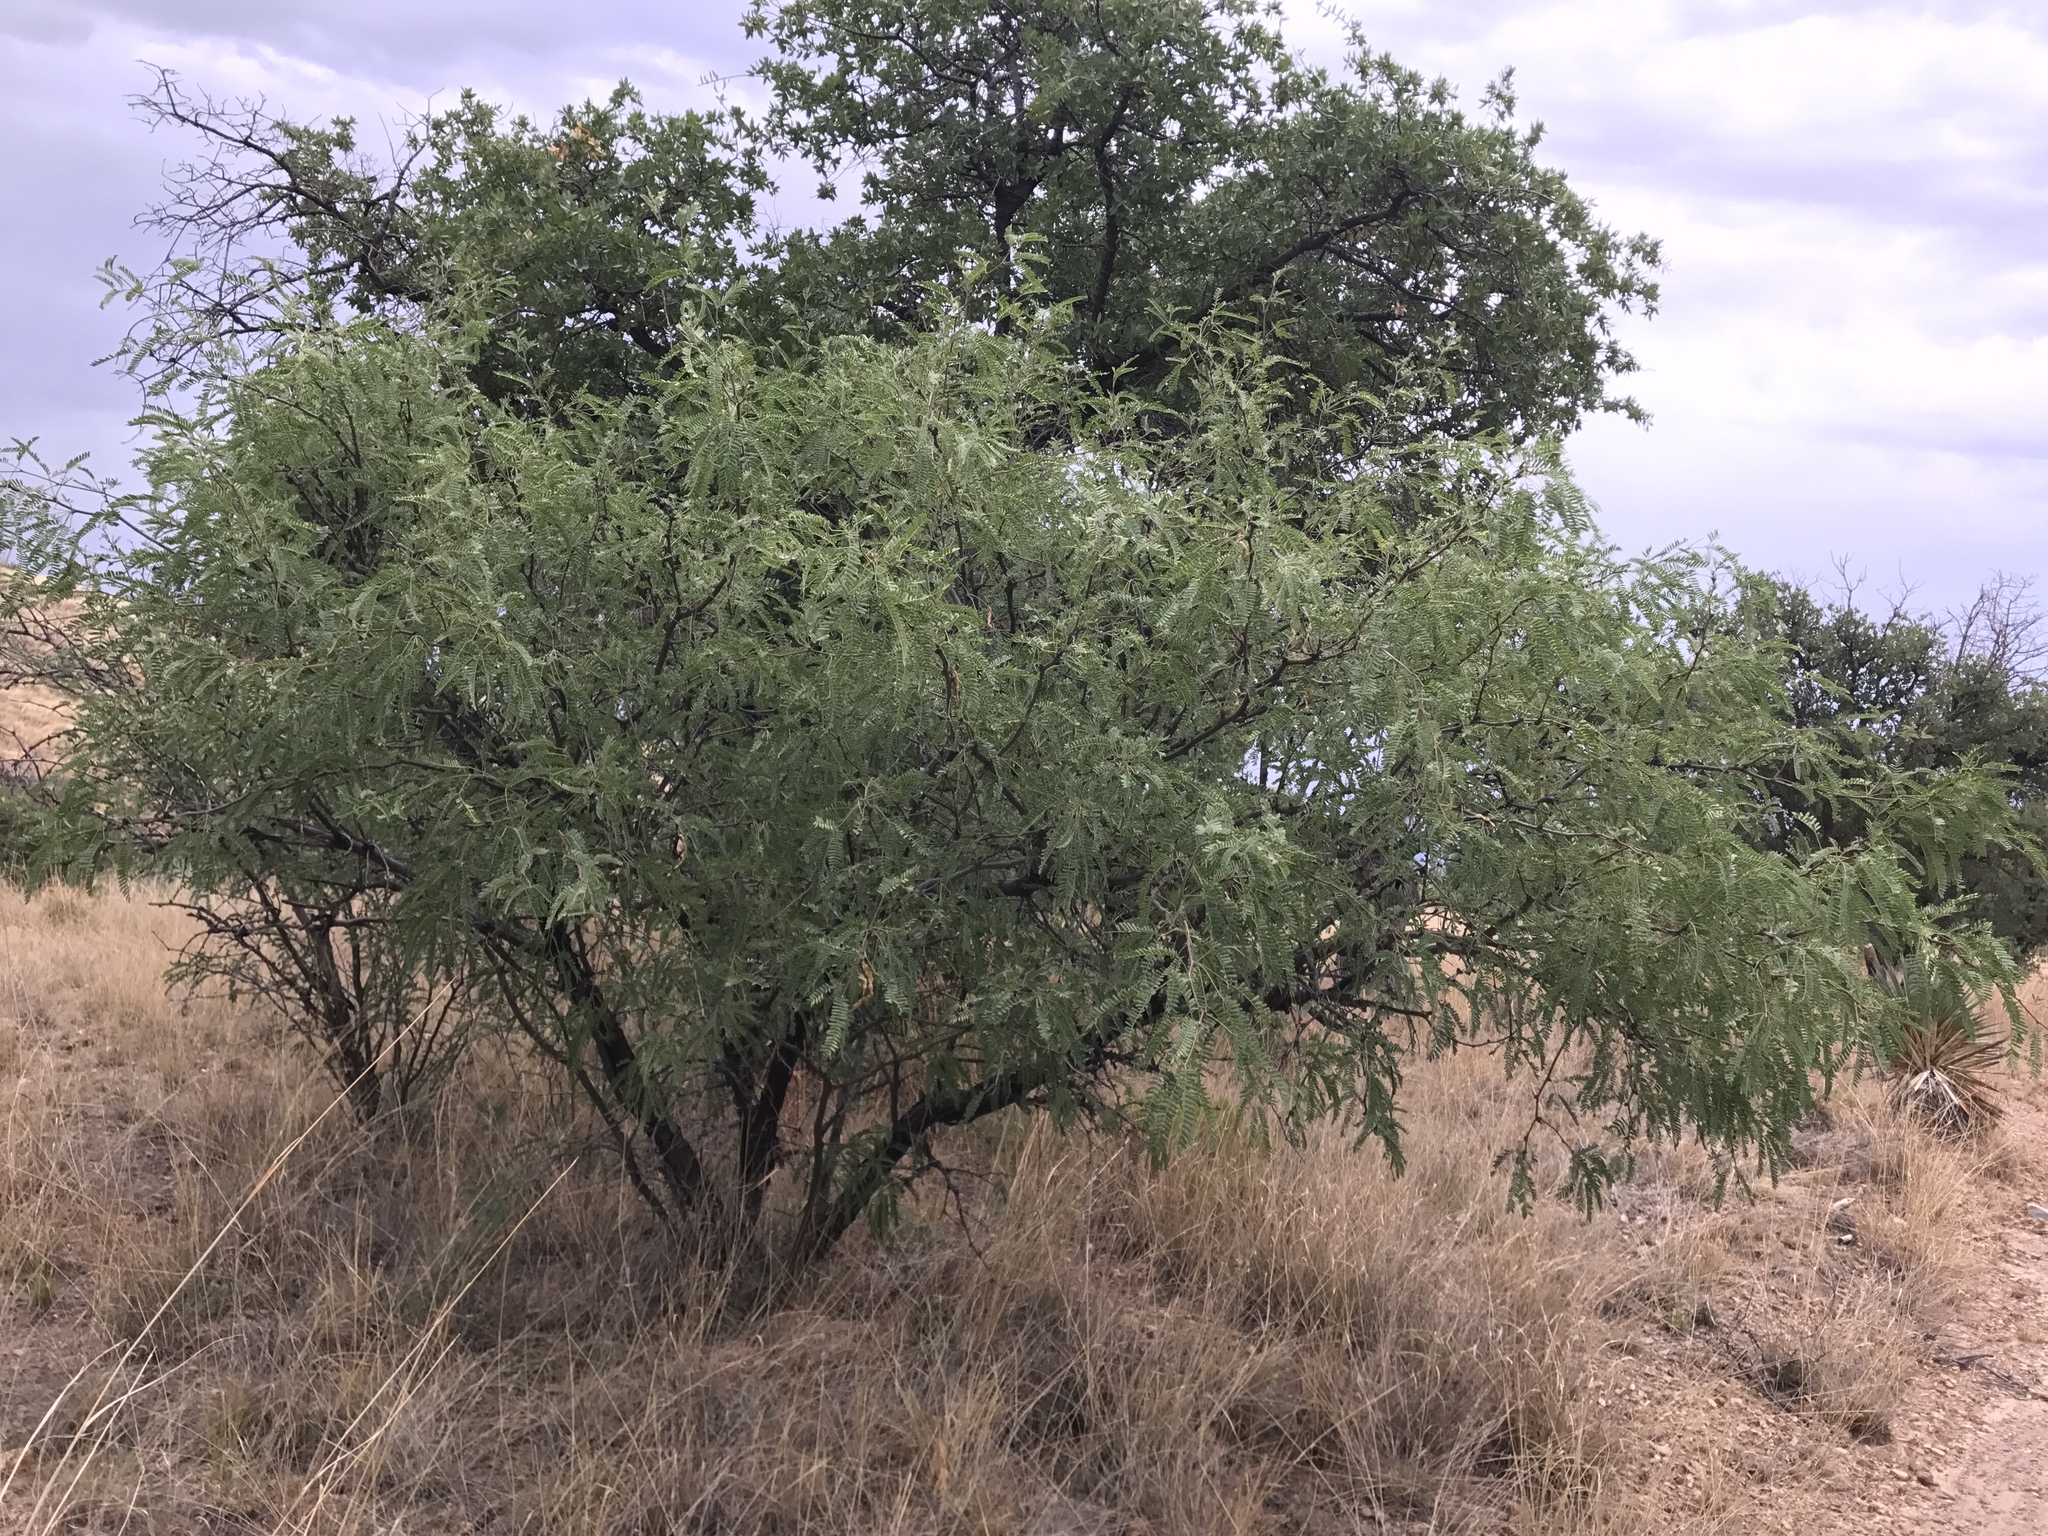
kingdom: Plantae
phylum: Tracheophyta
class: Magnoliopsida
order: Fabales
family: Fabaceae
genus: Prosopis
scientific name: Prosopis glandulosa
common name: Honey mesquite
